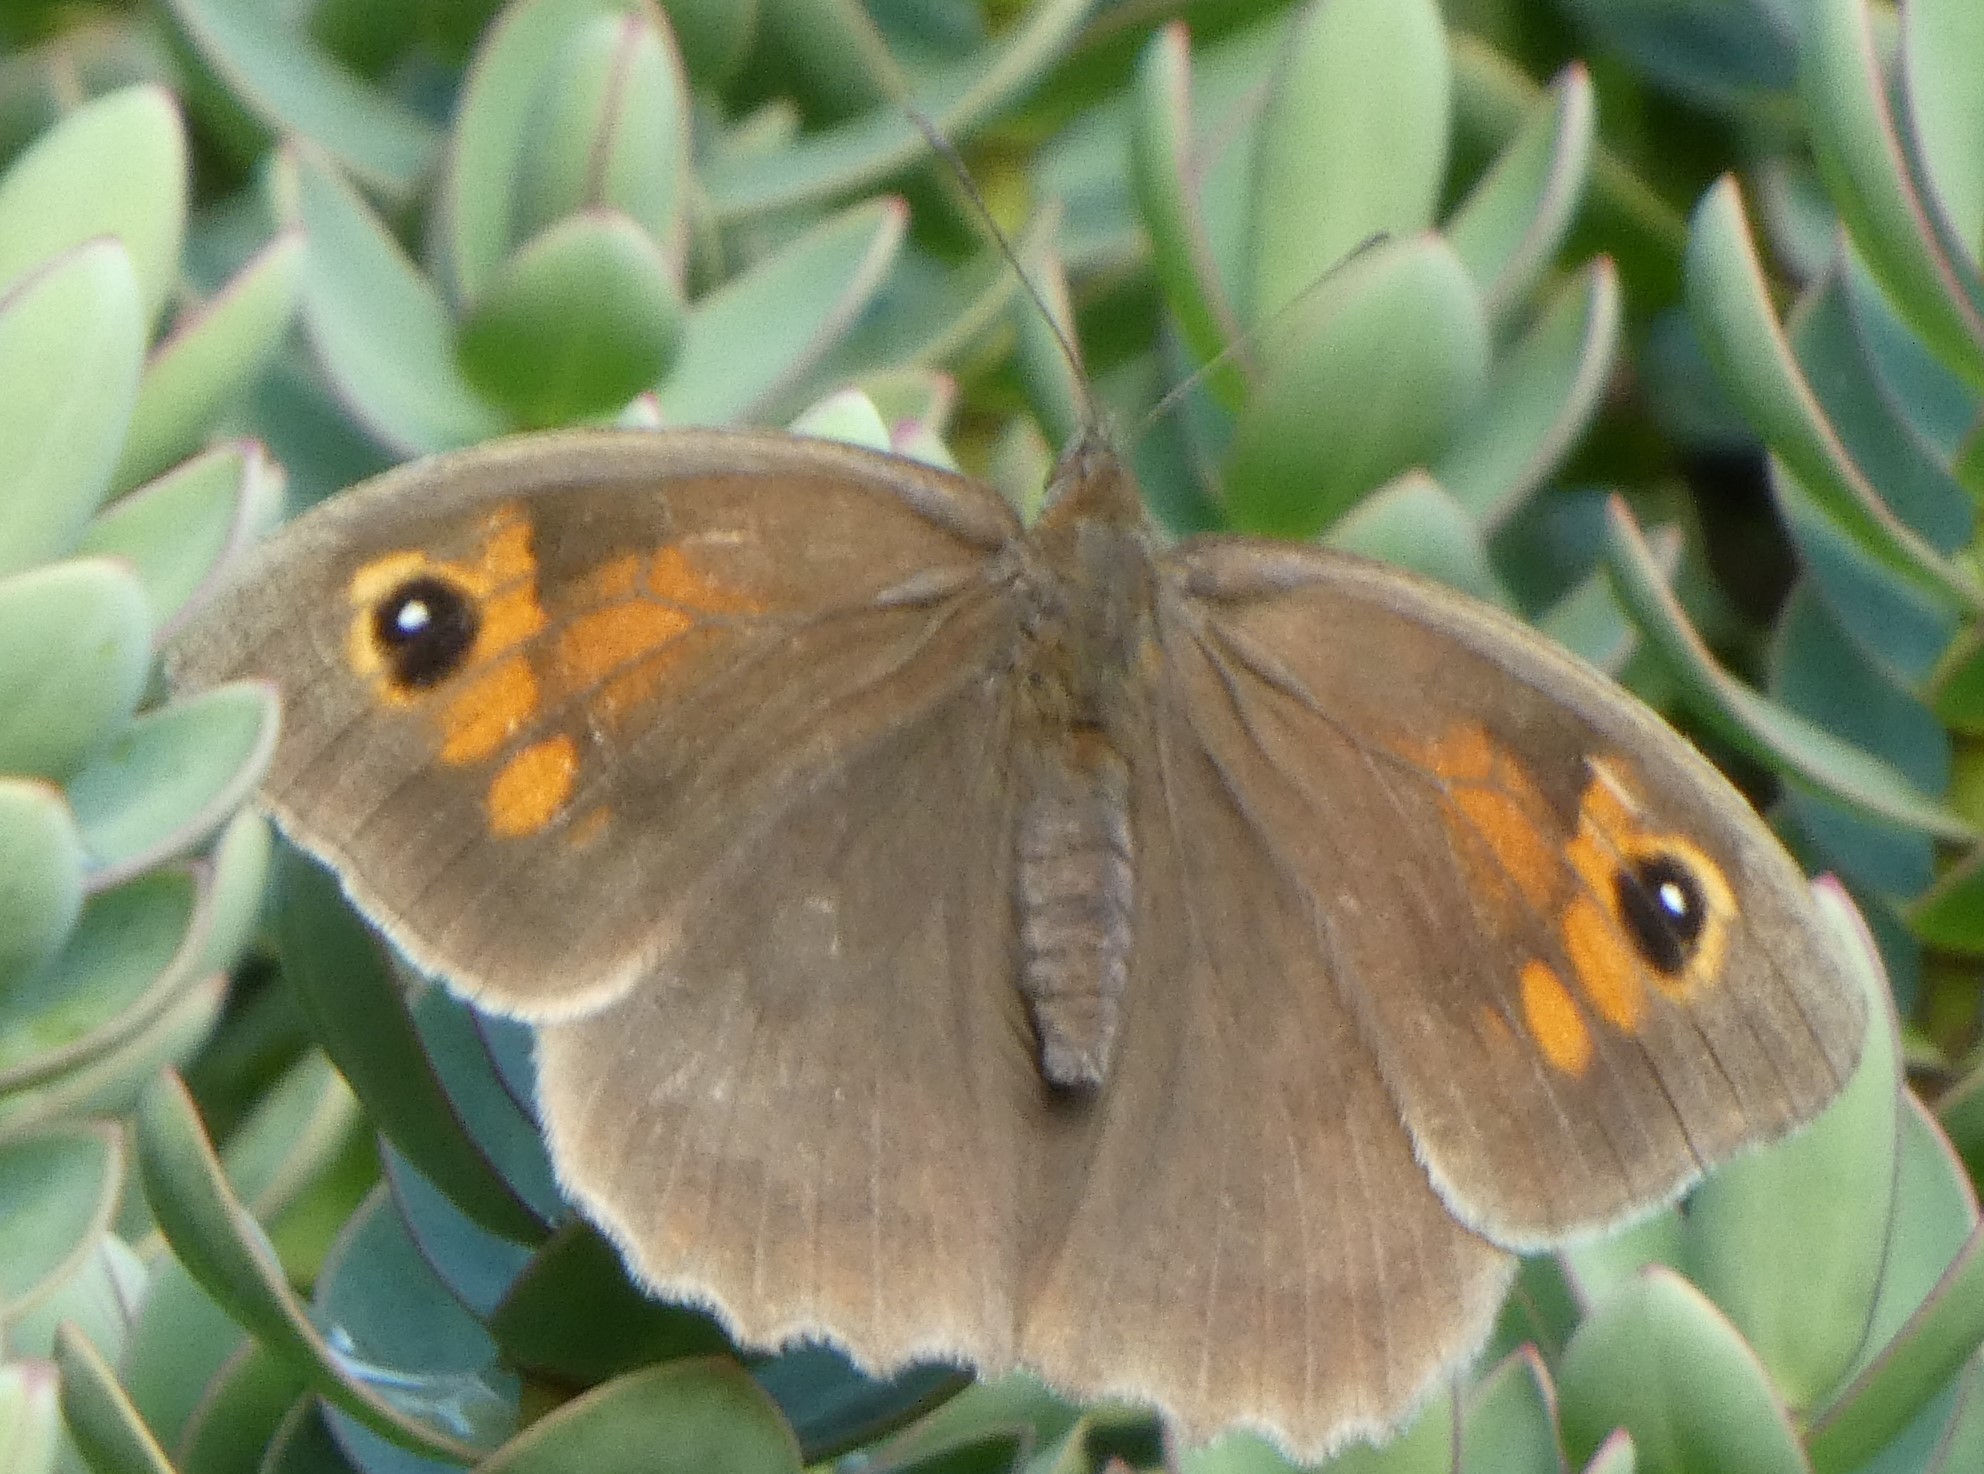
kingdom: Animalia
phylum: Arthropoda
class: Insecta
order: Lepidoptera
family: Nymphalidae
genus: Maniola
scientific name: Maniola jurtina
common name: Meadow brown
